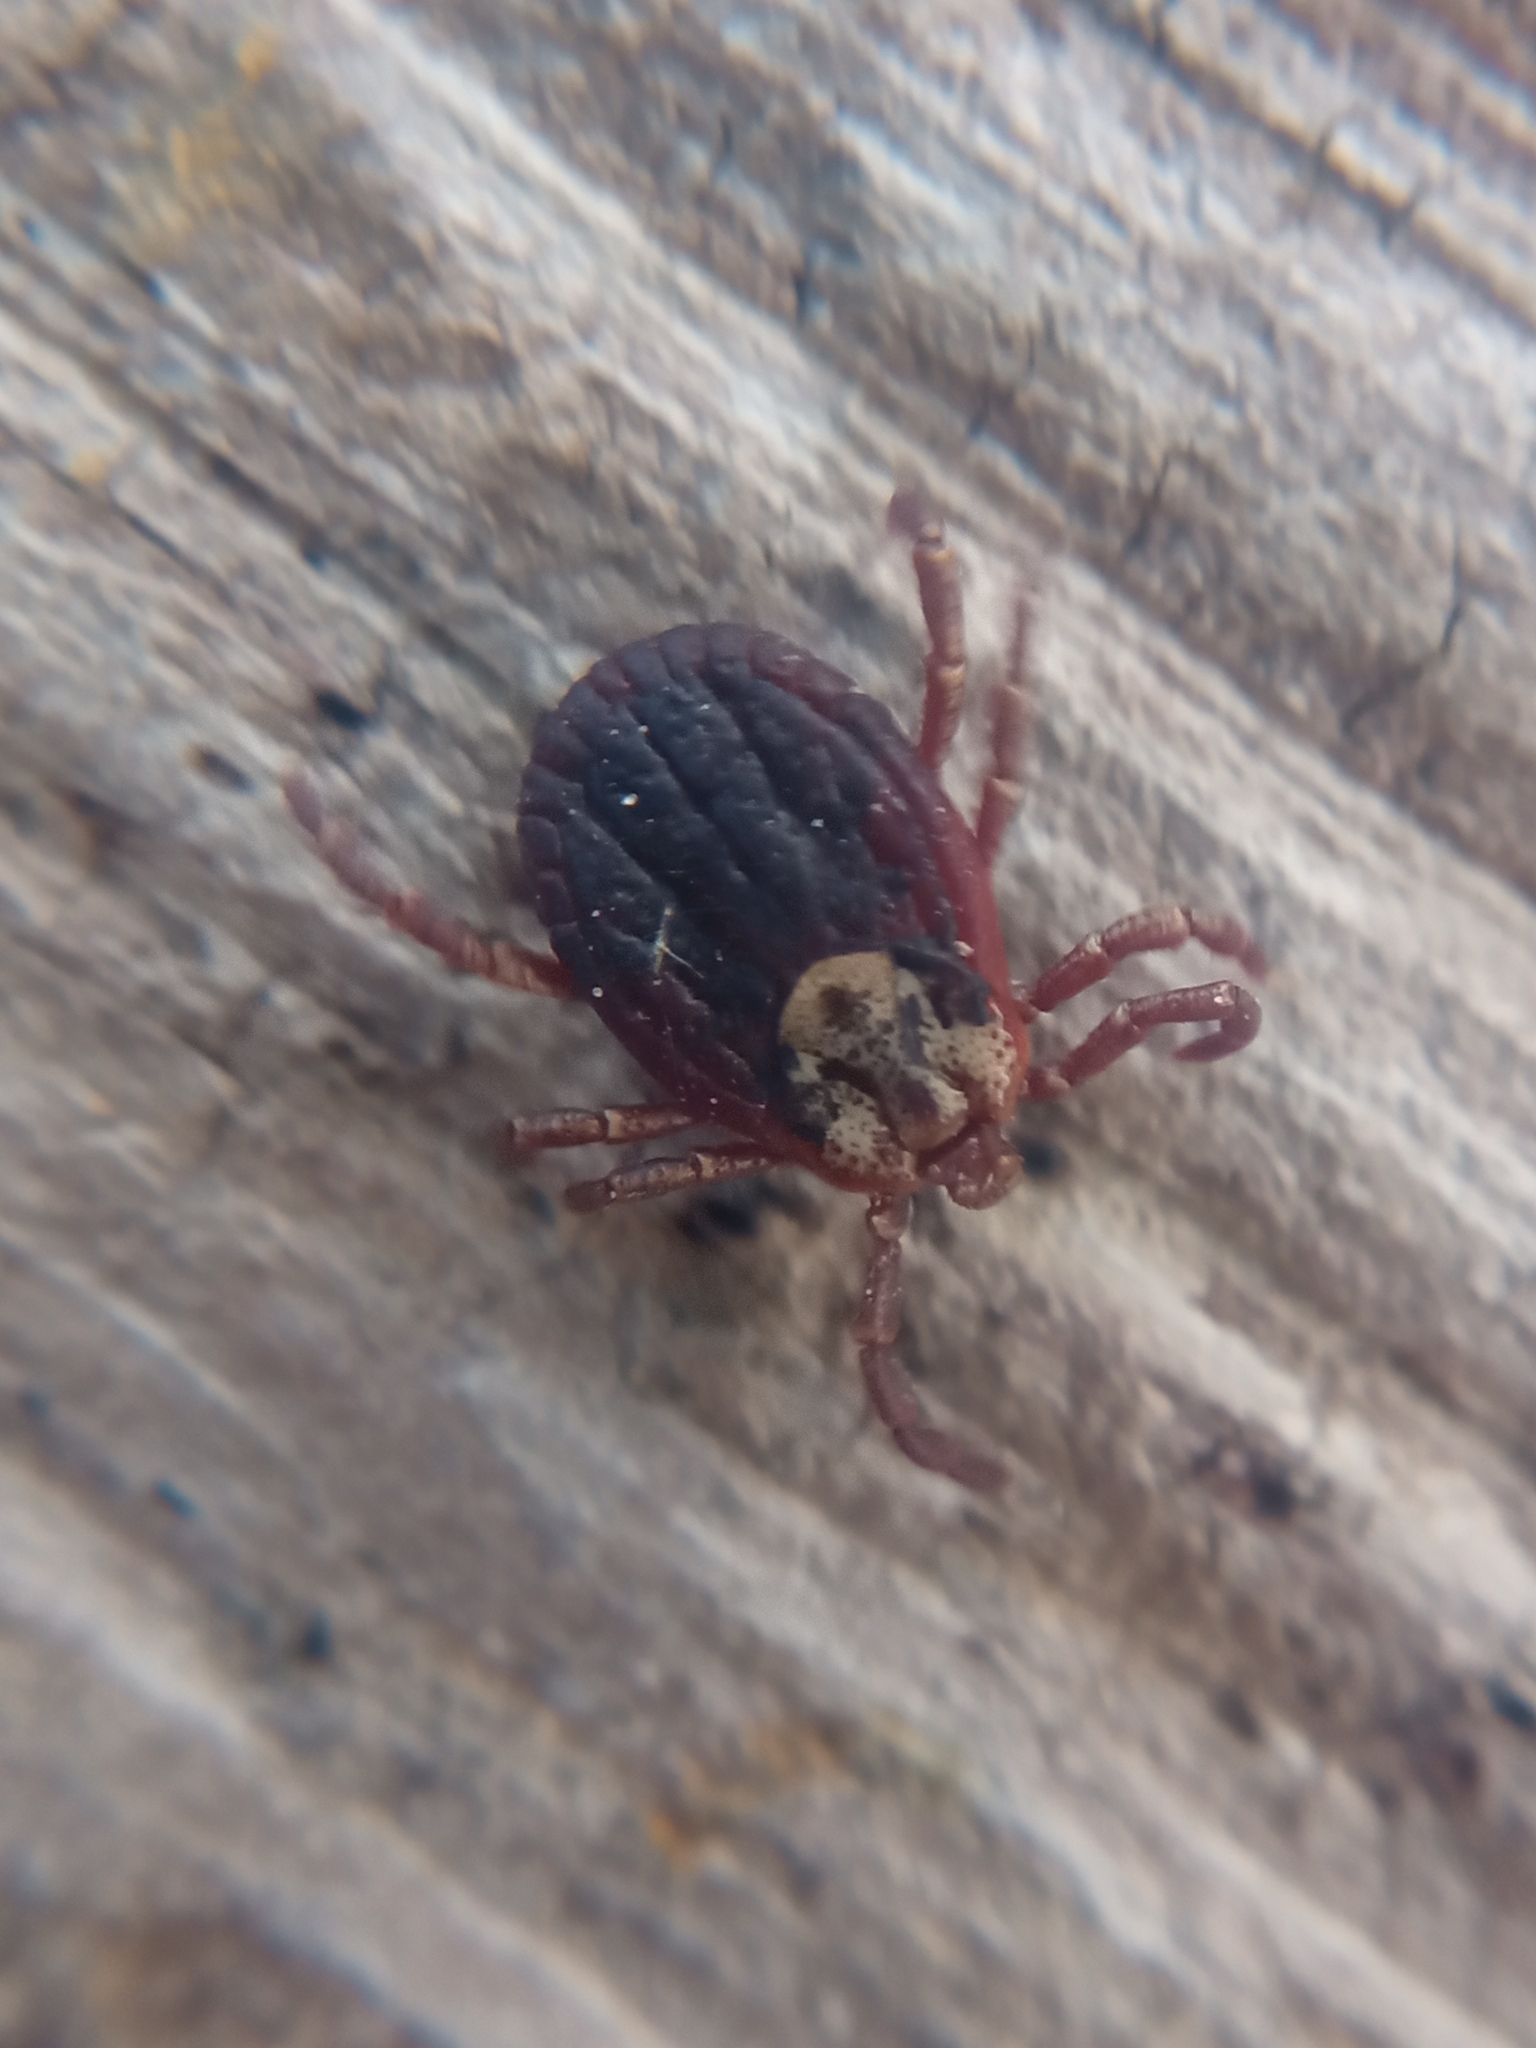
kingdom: Animalia
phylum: Arthropoda
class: Arachnida
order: Ixodida
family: Ixodidae
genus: Dermacentor
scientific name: Dermacentor marginatus
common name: Ornate sheep tick
